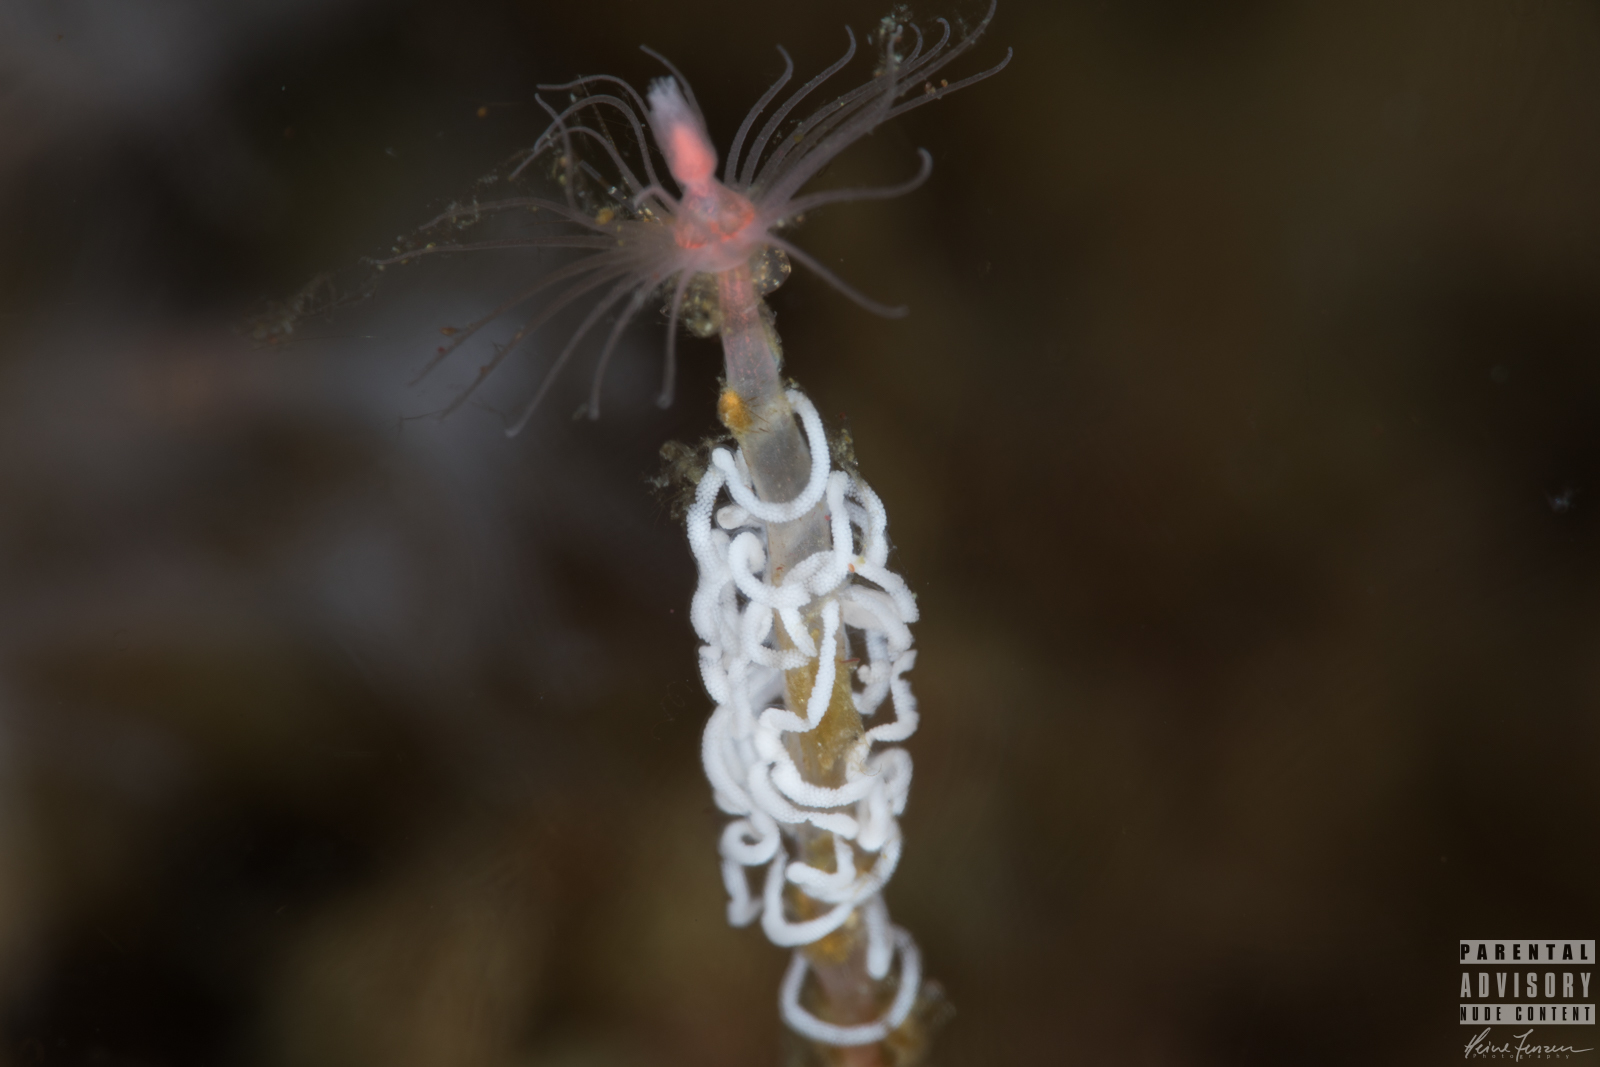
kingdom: Animalia
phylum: Mollusca
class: Gastropoda
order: Nudibranchia
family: Coryphellidae
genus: Coryphella
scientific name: Coryphella lineata
